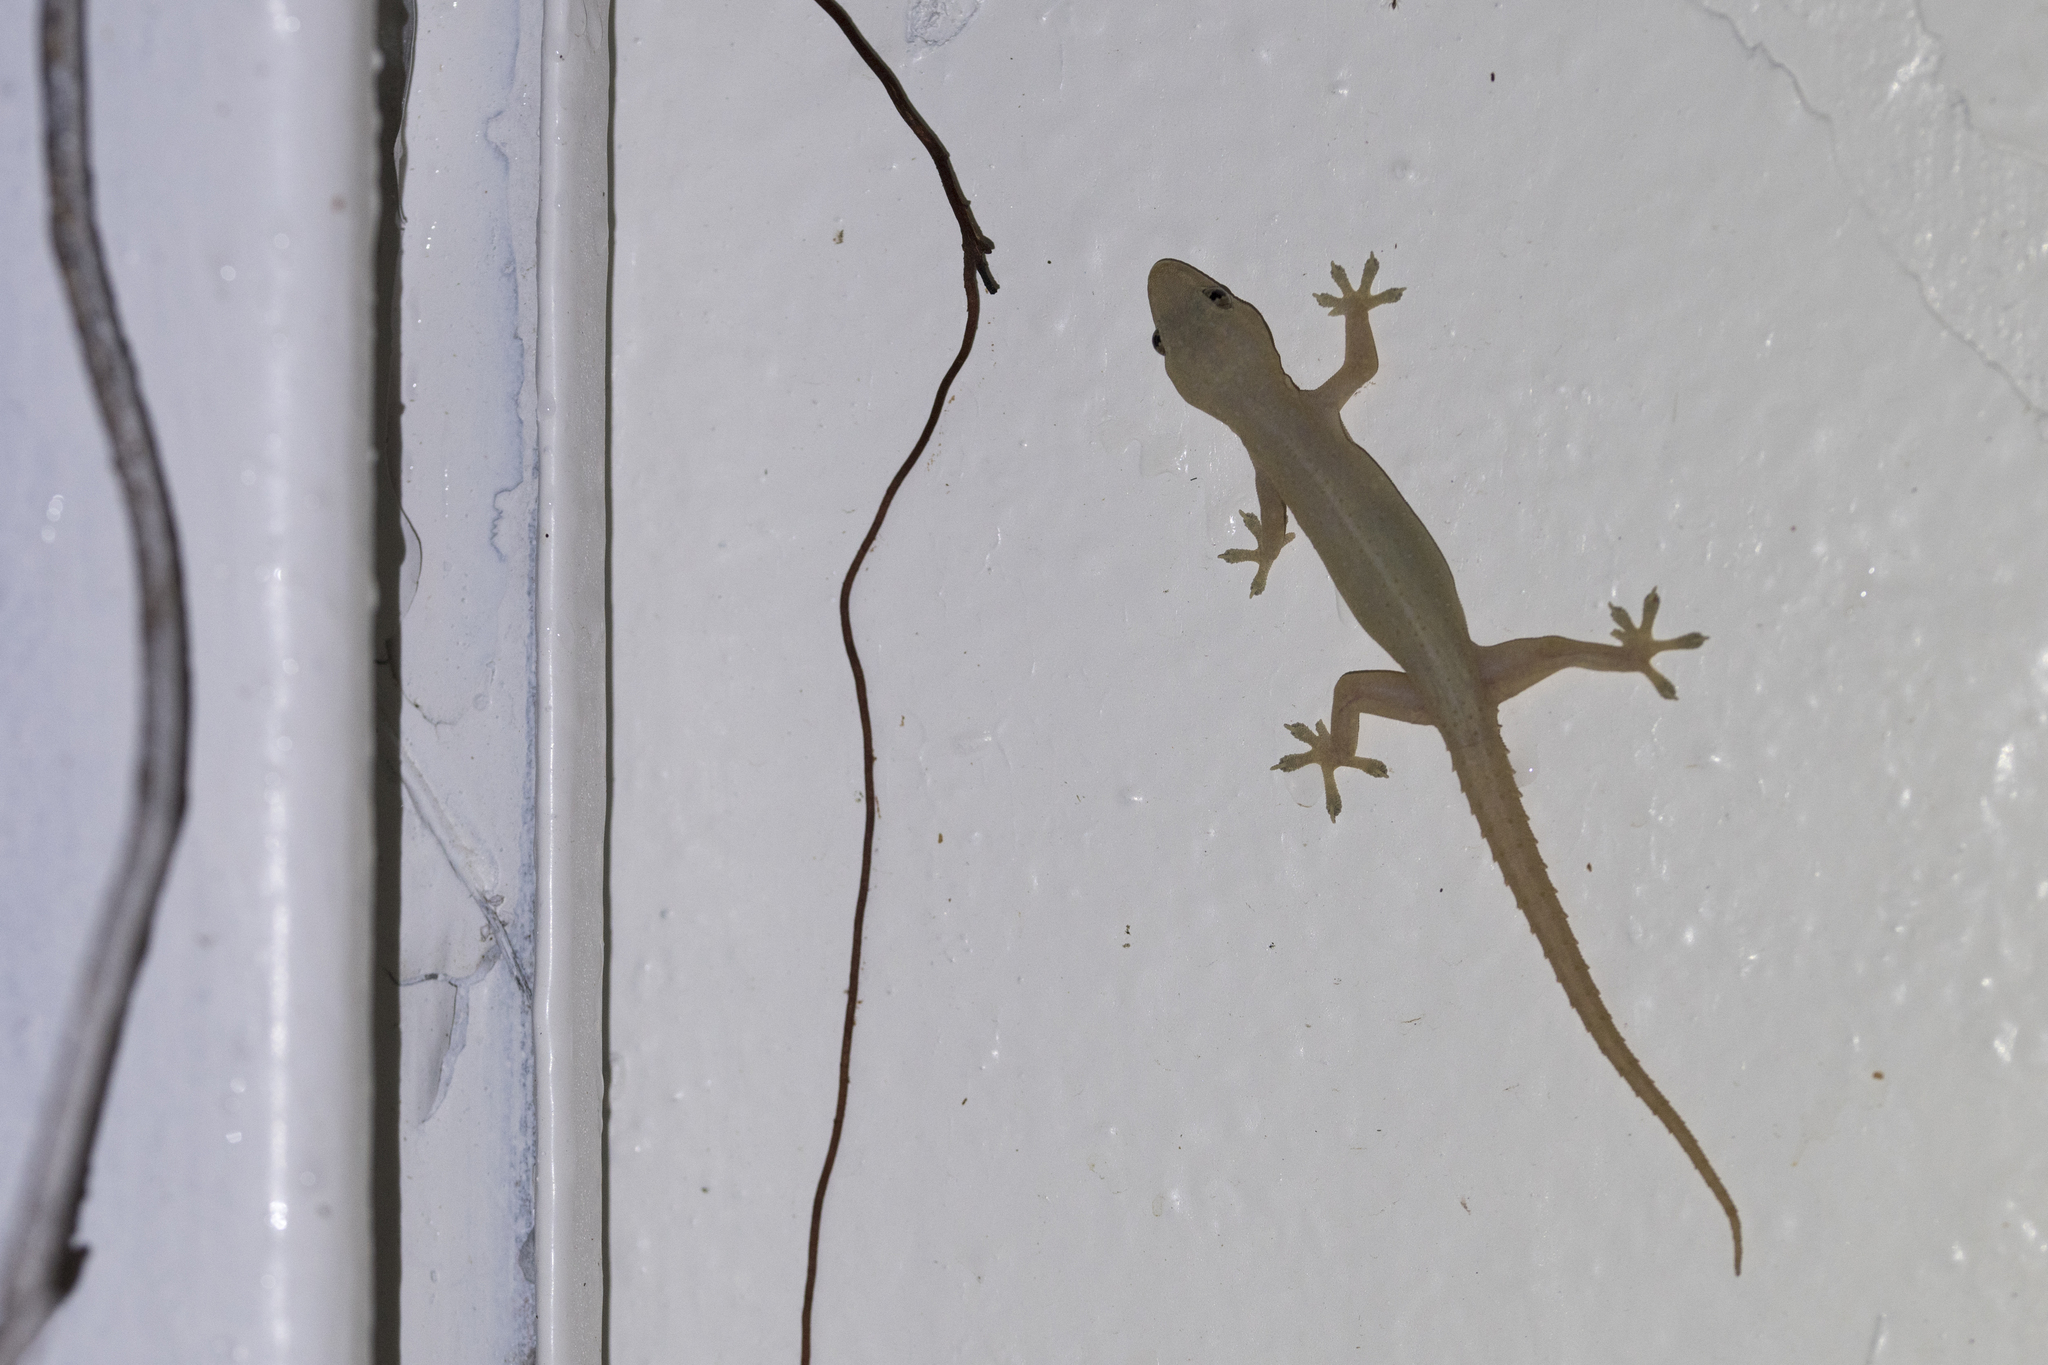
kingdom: Animalia
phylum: Chordata
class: Squamata
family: Gekkonidae
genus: Hemidactylus
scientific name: Hemidactylus frenatus
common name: Common house gecko
